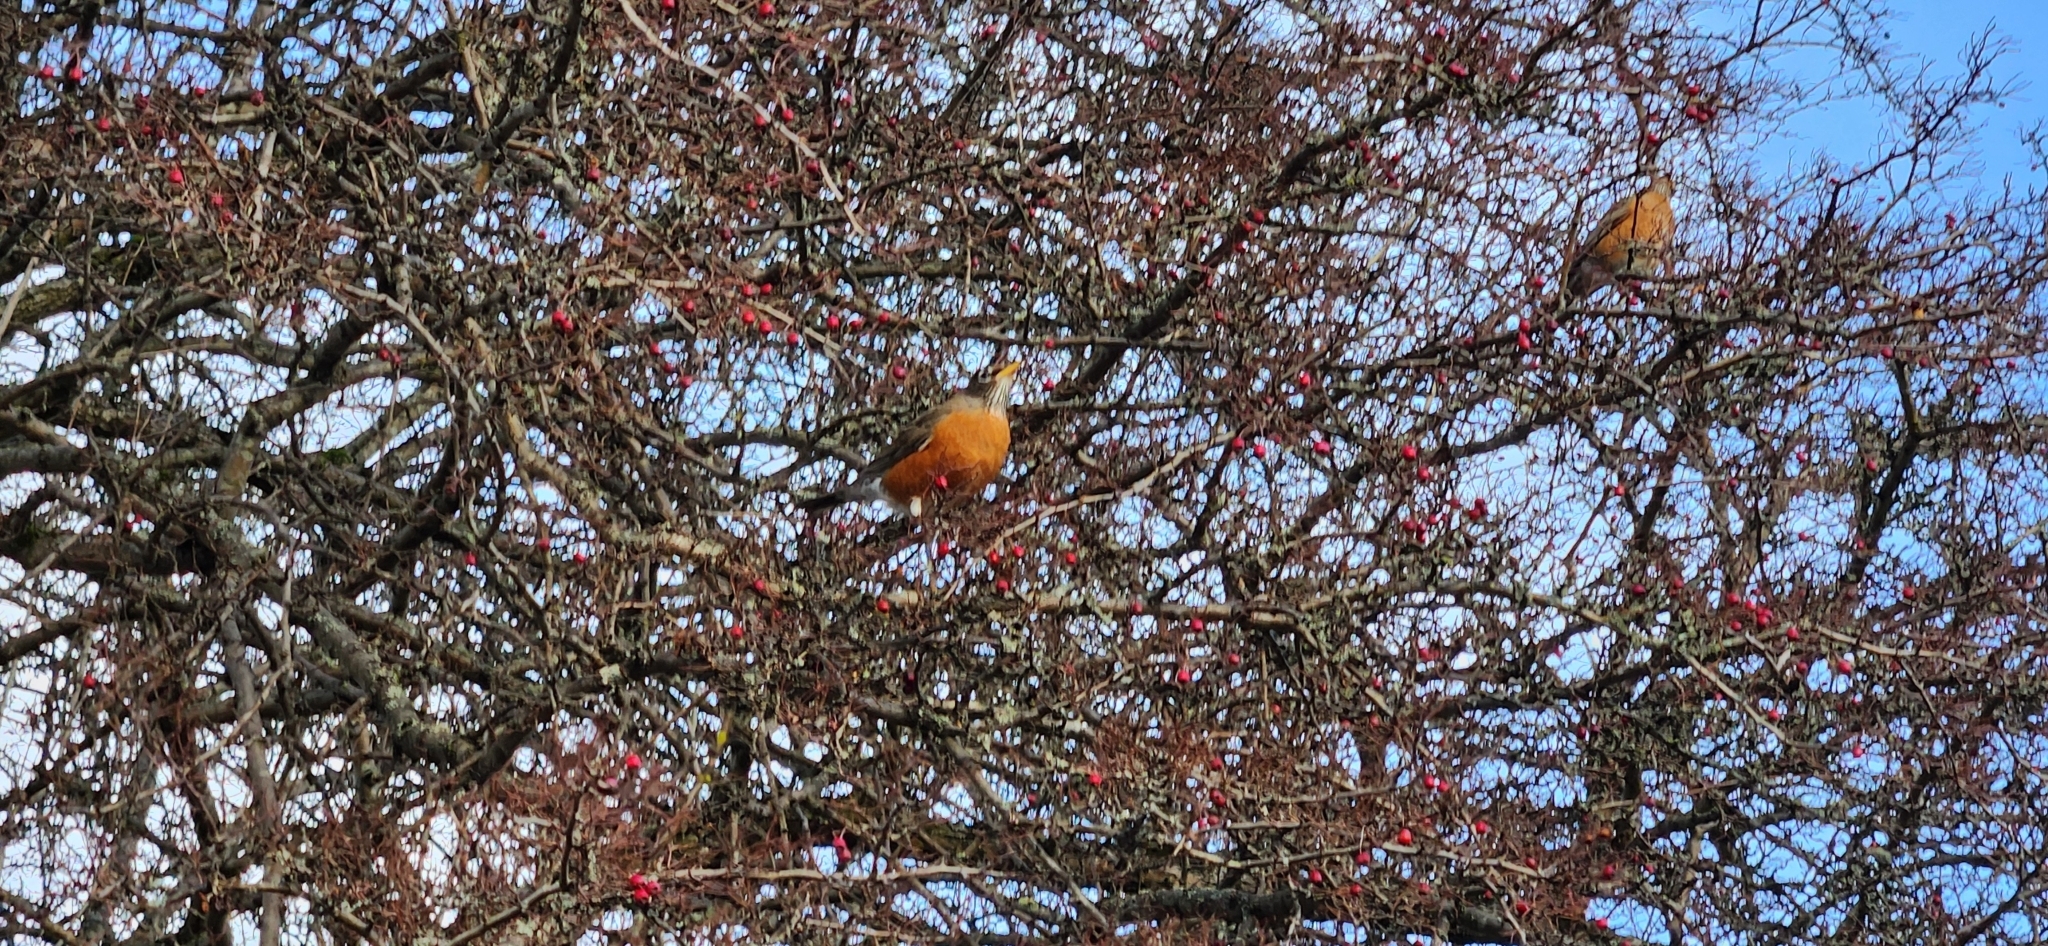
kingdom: Animalia
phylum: Chordata
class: Aves
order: Passeriformes
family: Turdidae
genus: Turdus
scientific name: Turdus migratorius
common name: American robin
